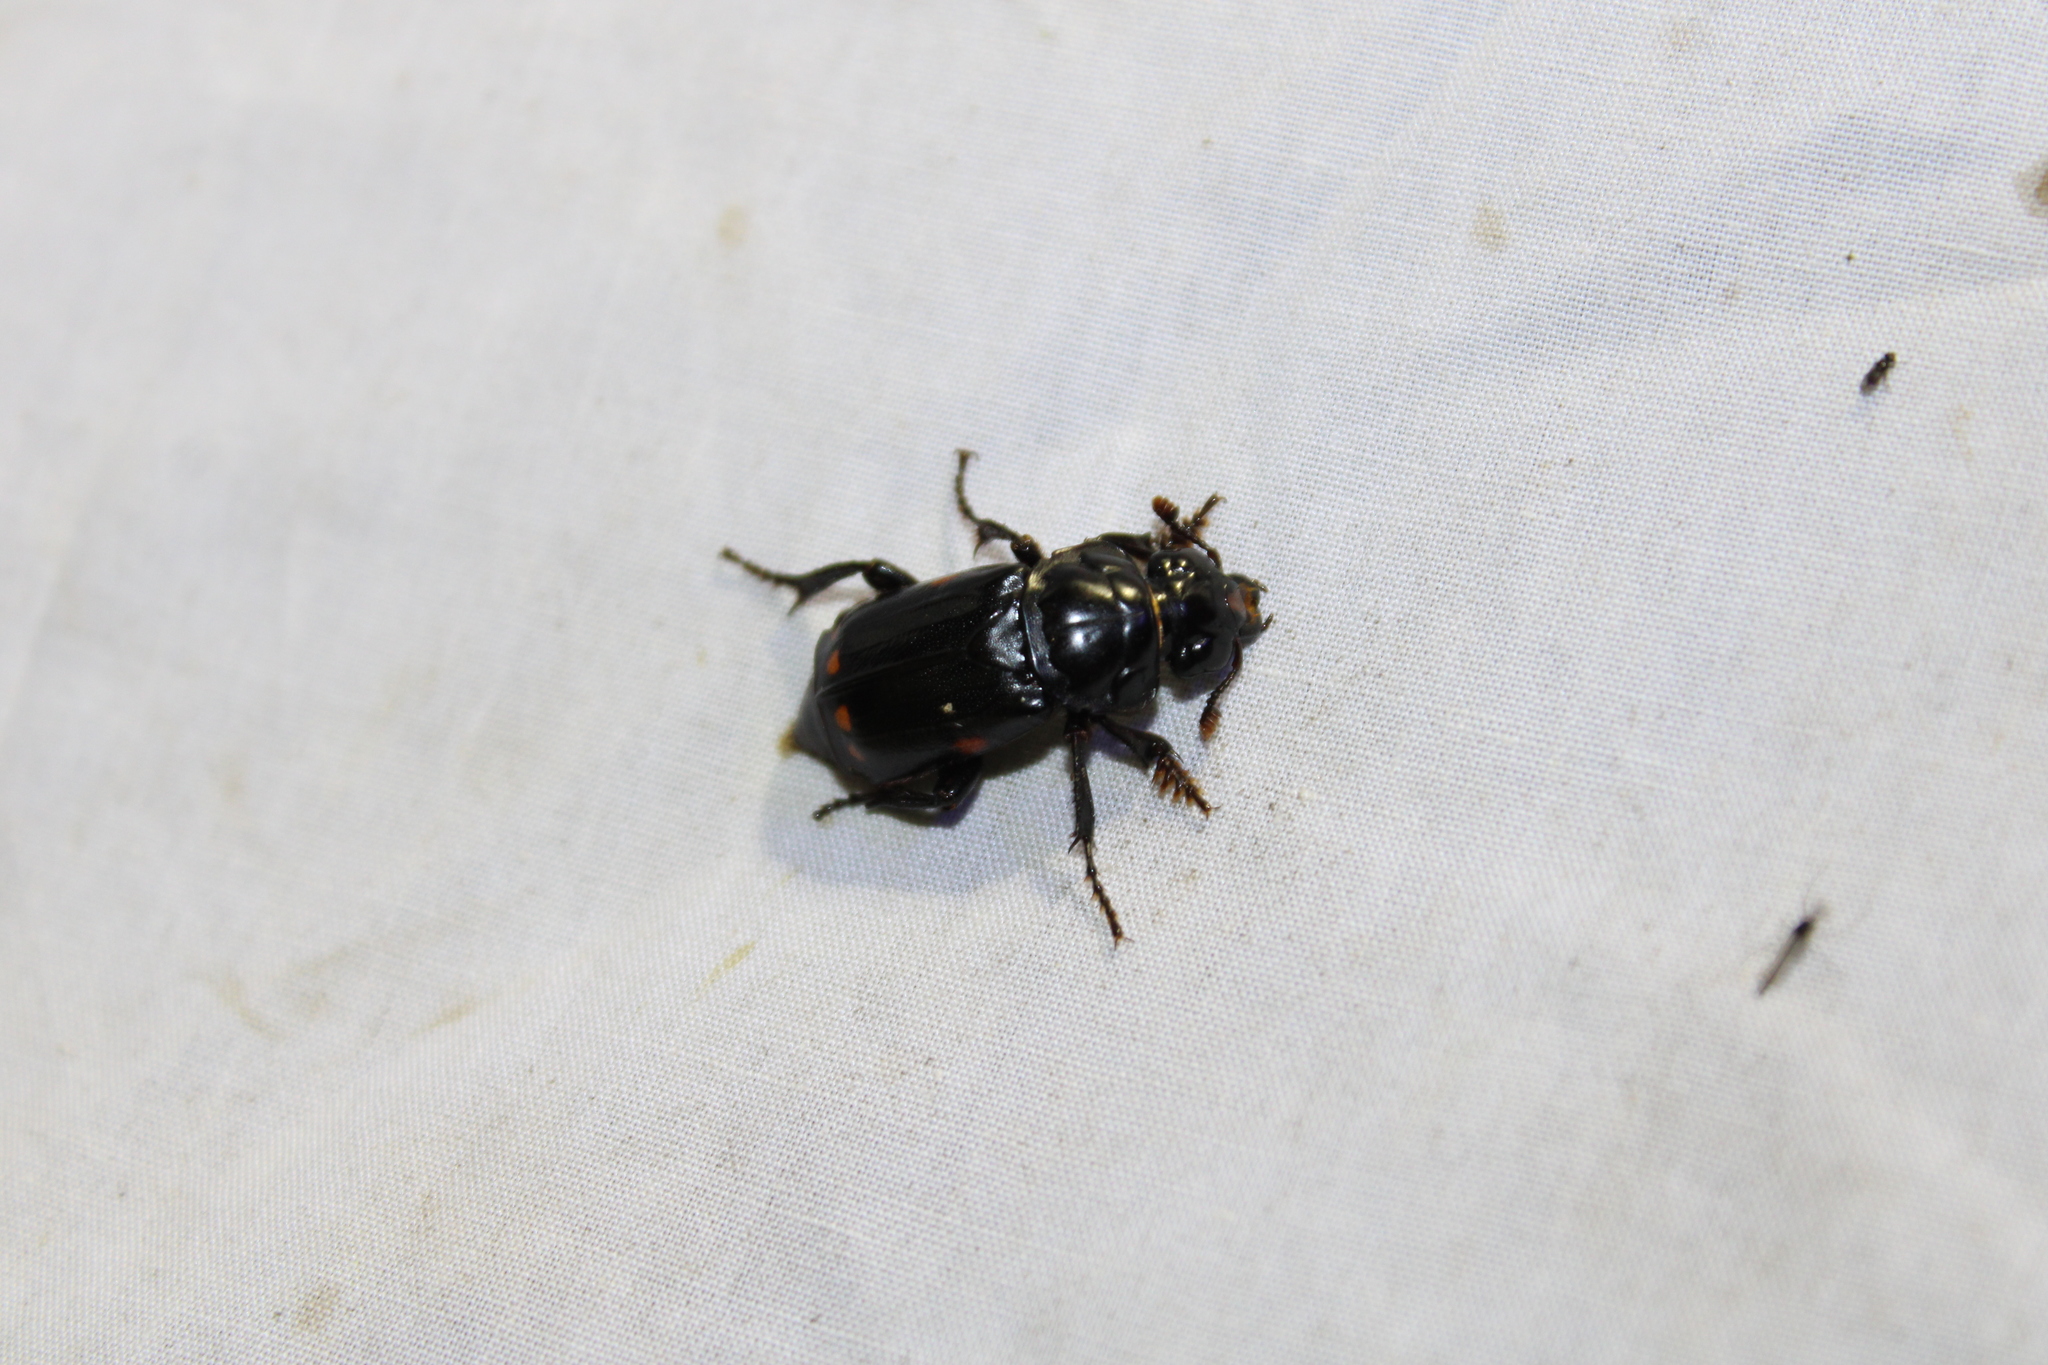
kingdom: Animalia
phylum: Arthropoda
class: Insecta
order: Coleoptera
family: Staphylinidae
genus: Nicrophorus
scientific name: Nicrophorus pustulatus
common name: Pustulated carrion beetle
